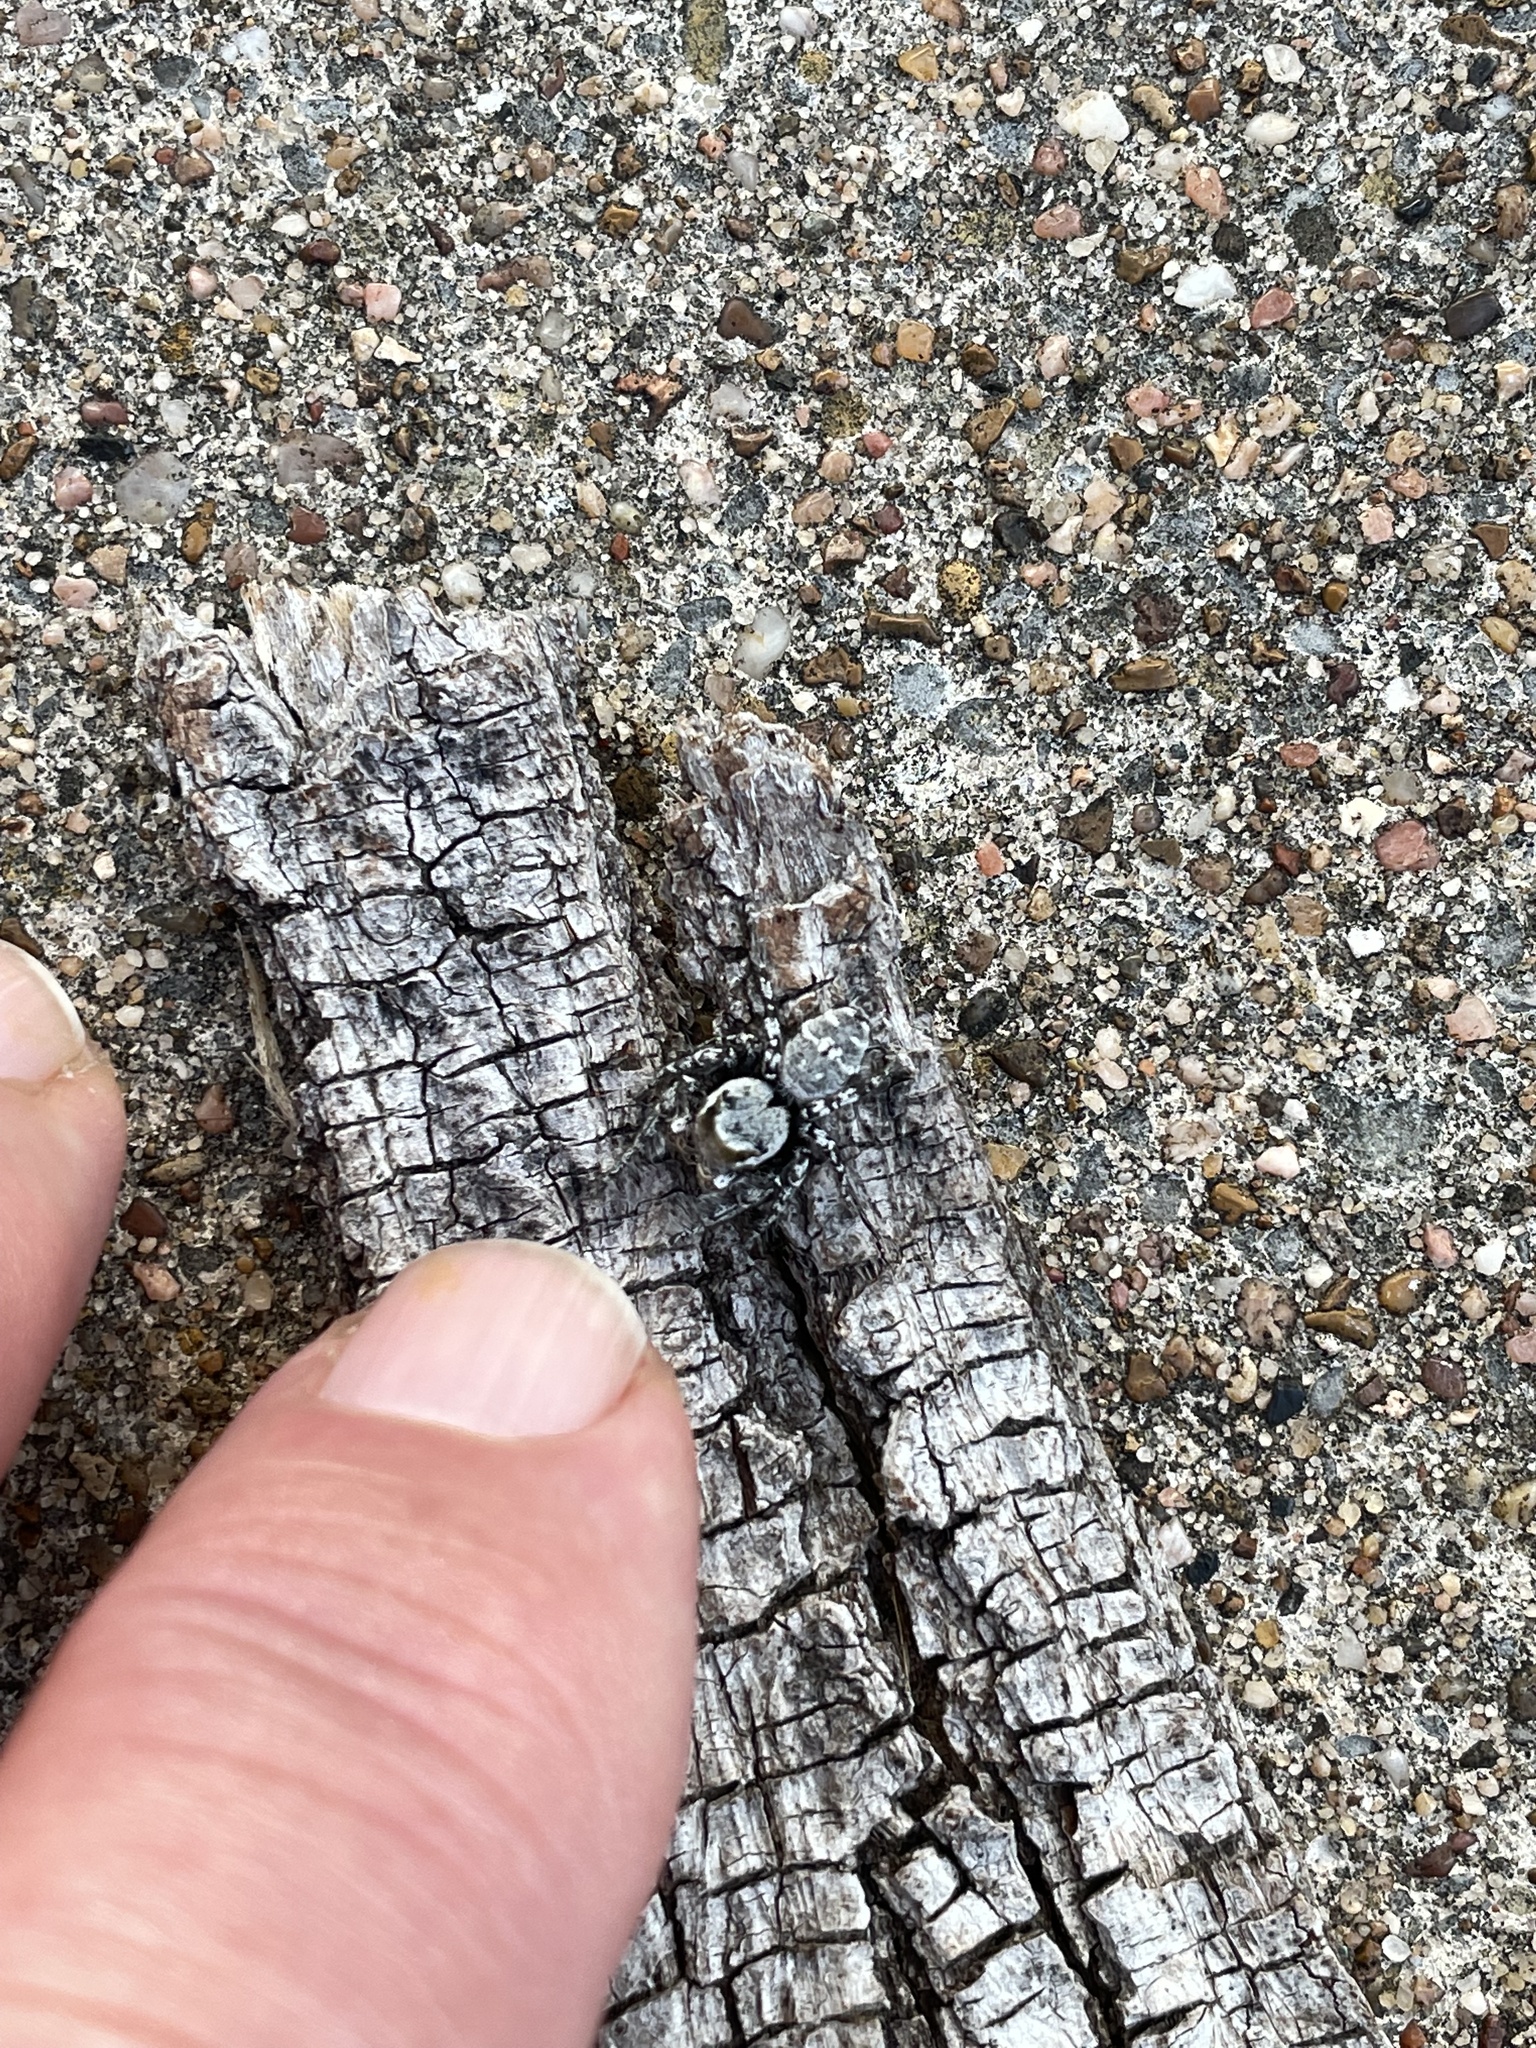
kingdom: Animalia
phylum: Arthropoda
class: Arachnida
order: Araneae
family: Salticidae
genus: Phidippus
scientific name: Phidippus carolinensis
